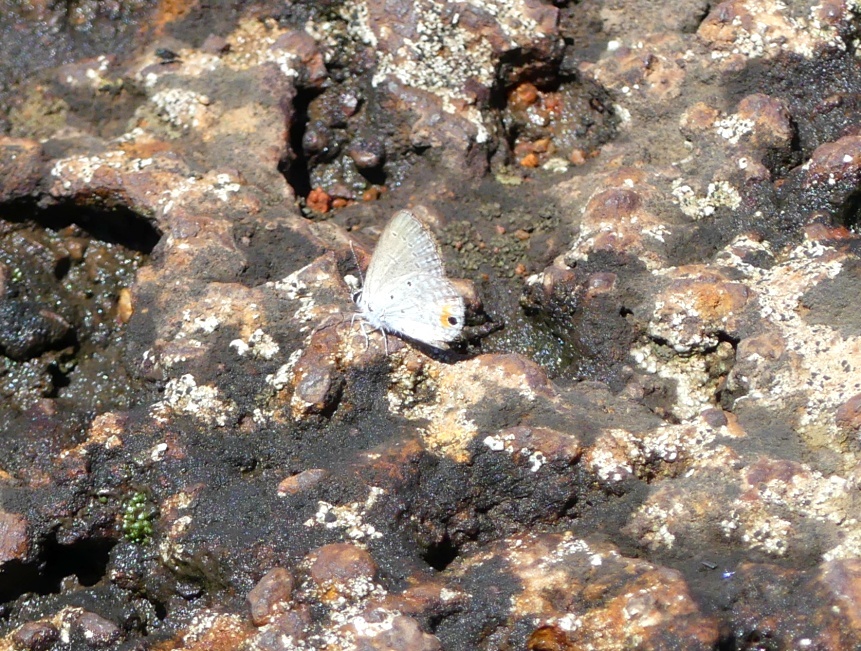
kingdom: Animalia
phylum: Arthropoda
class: Insecta
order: Lepidoptera
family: Lycaenidae
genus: Eicochrysops
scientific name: Eicochrysops messapus
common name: Cupreous blue
